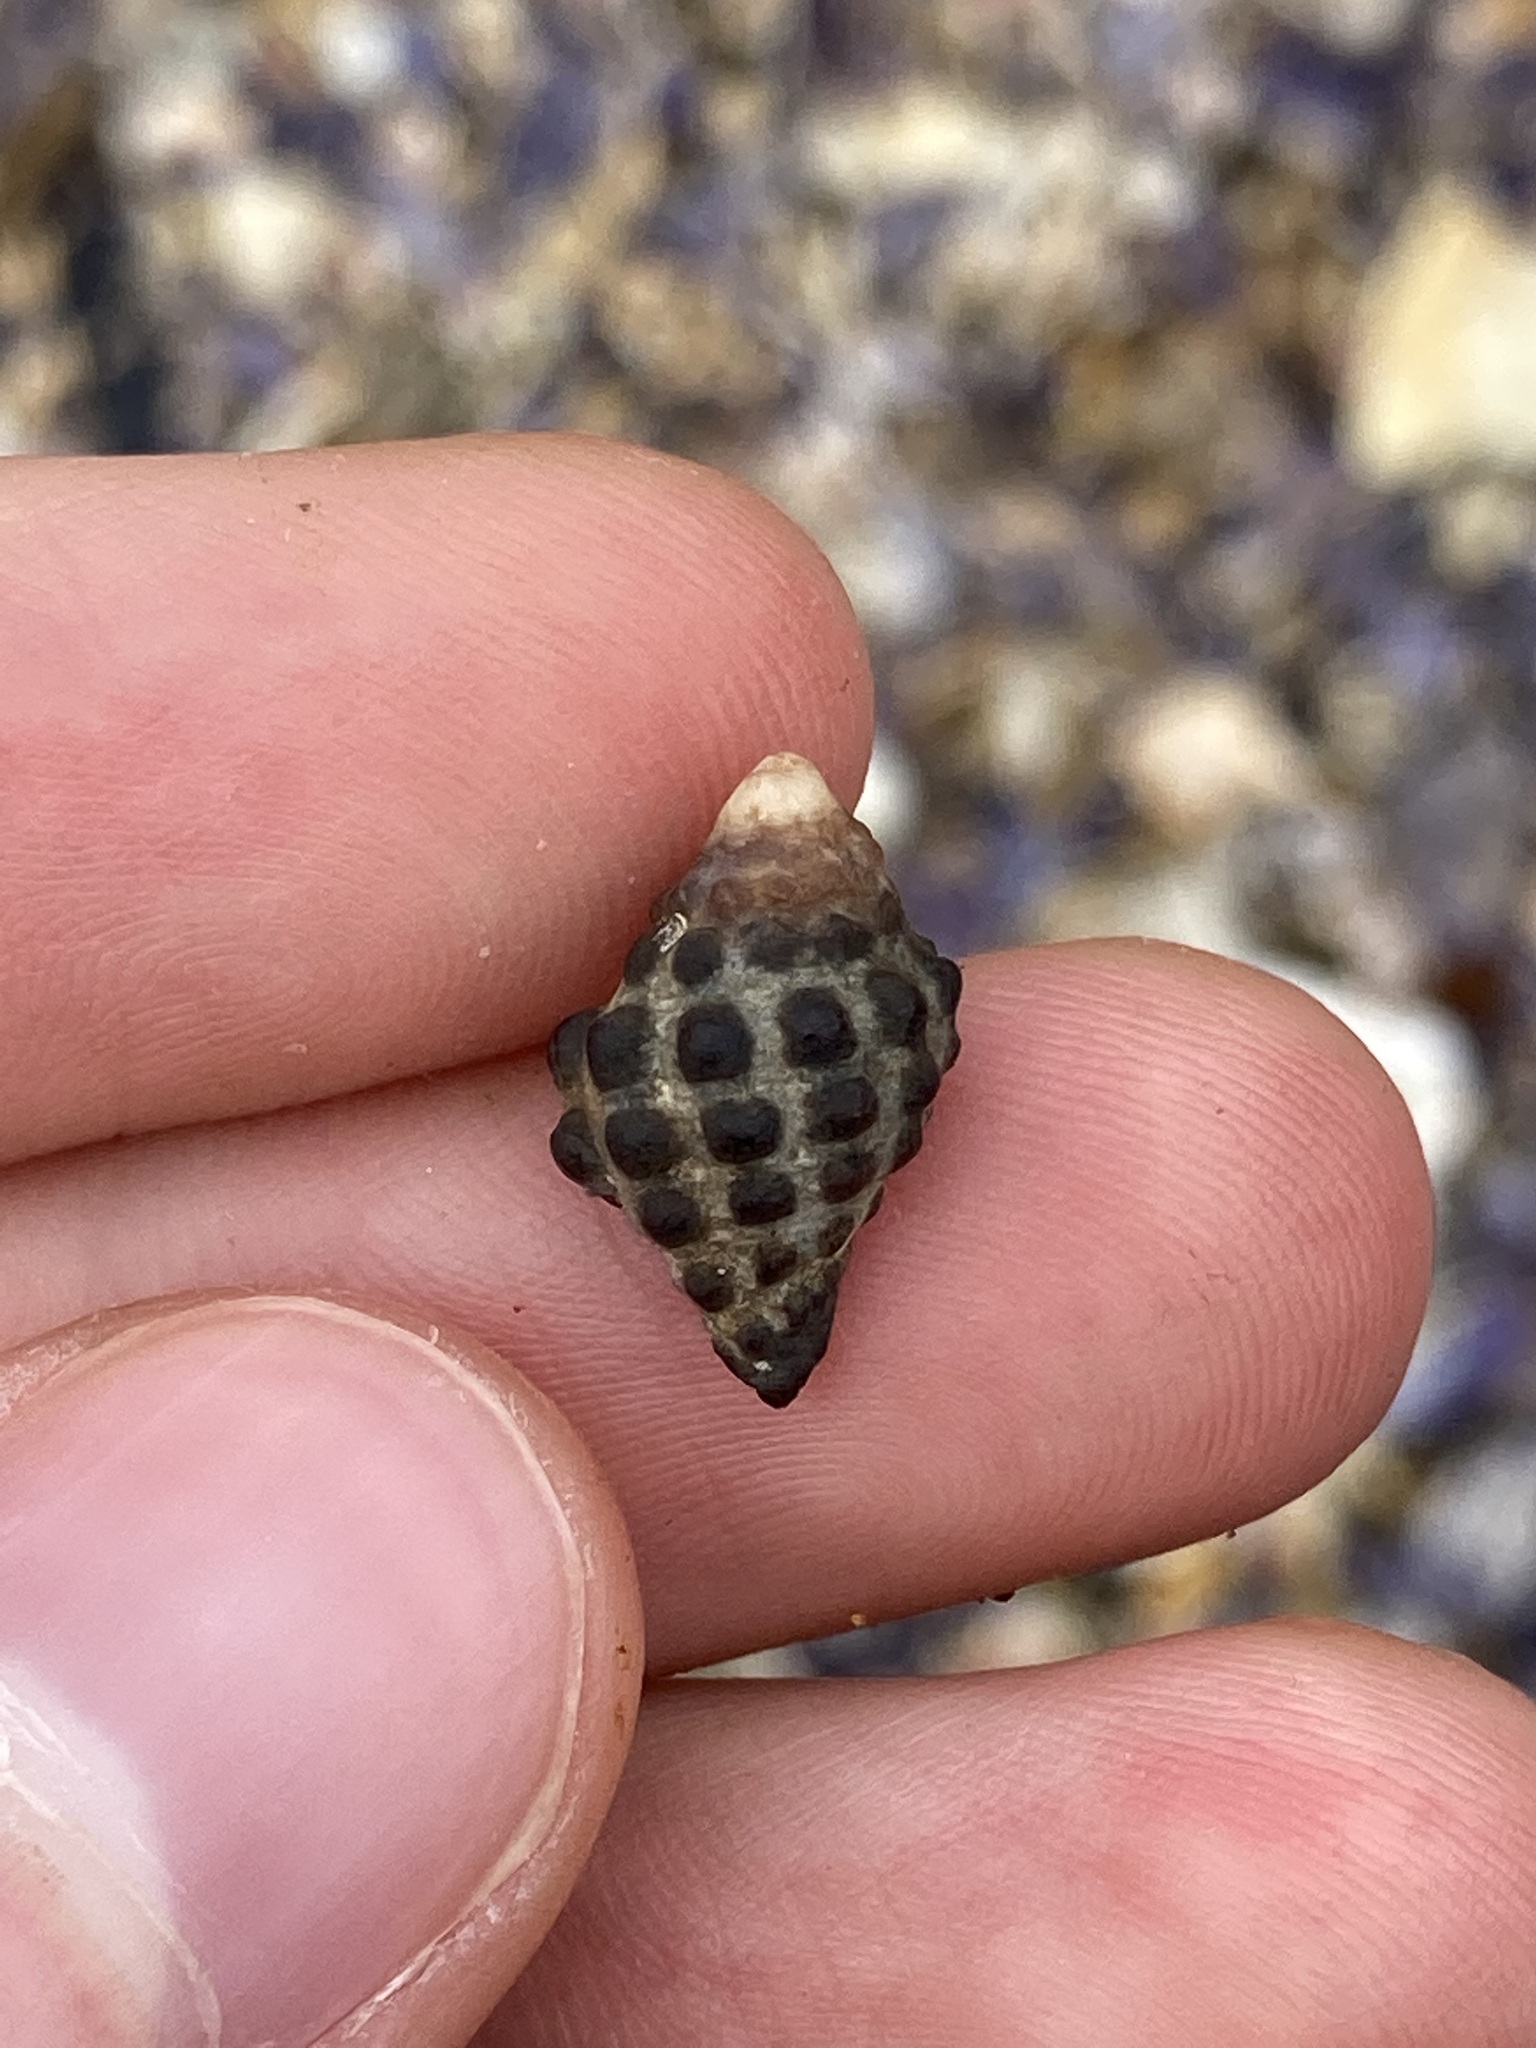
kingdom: Animalia
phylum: Mollusca
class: Gastropoda
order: Neogastropoda
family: Muricidae
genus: Tenguella
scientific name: Tenguella marginalba
